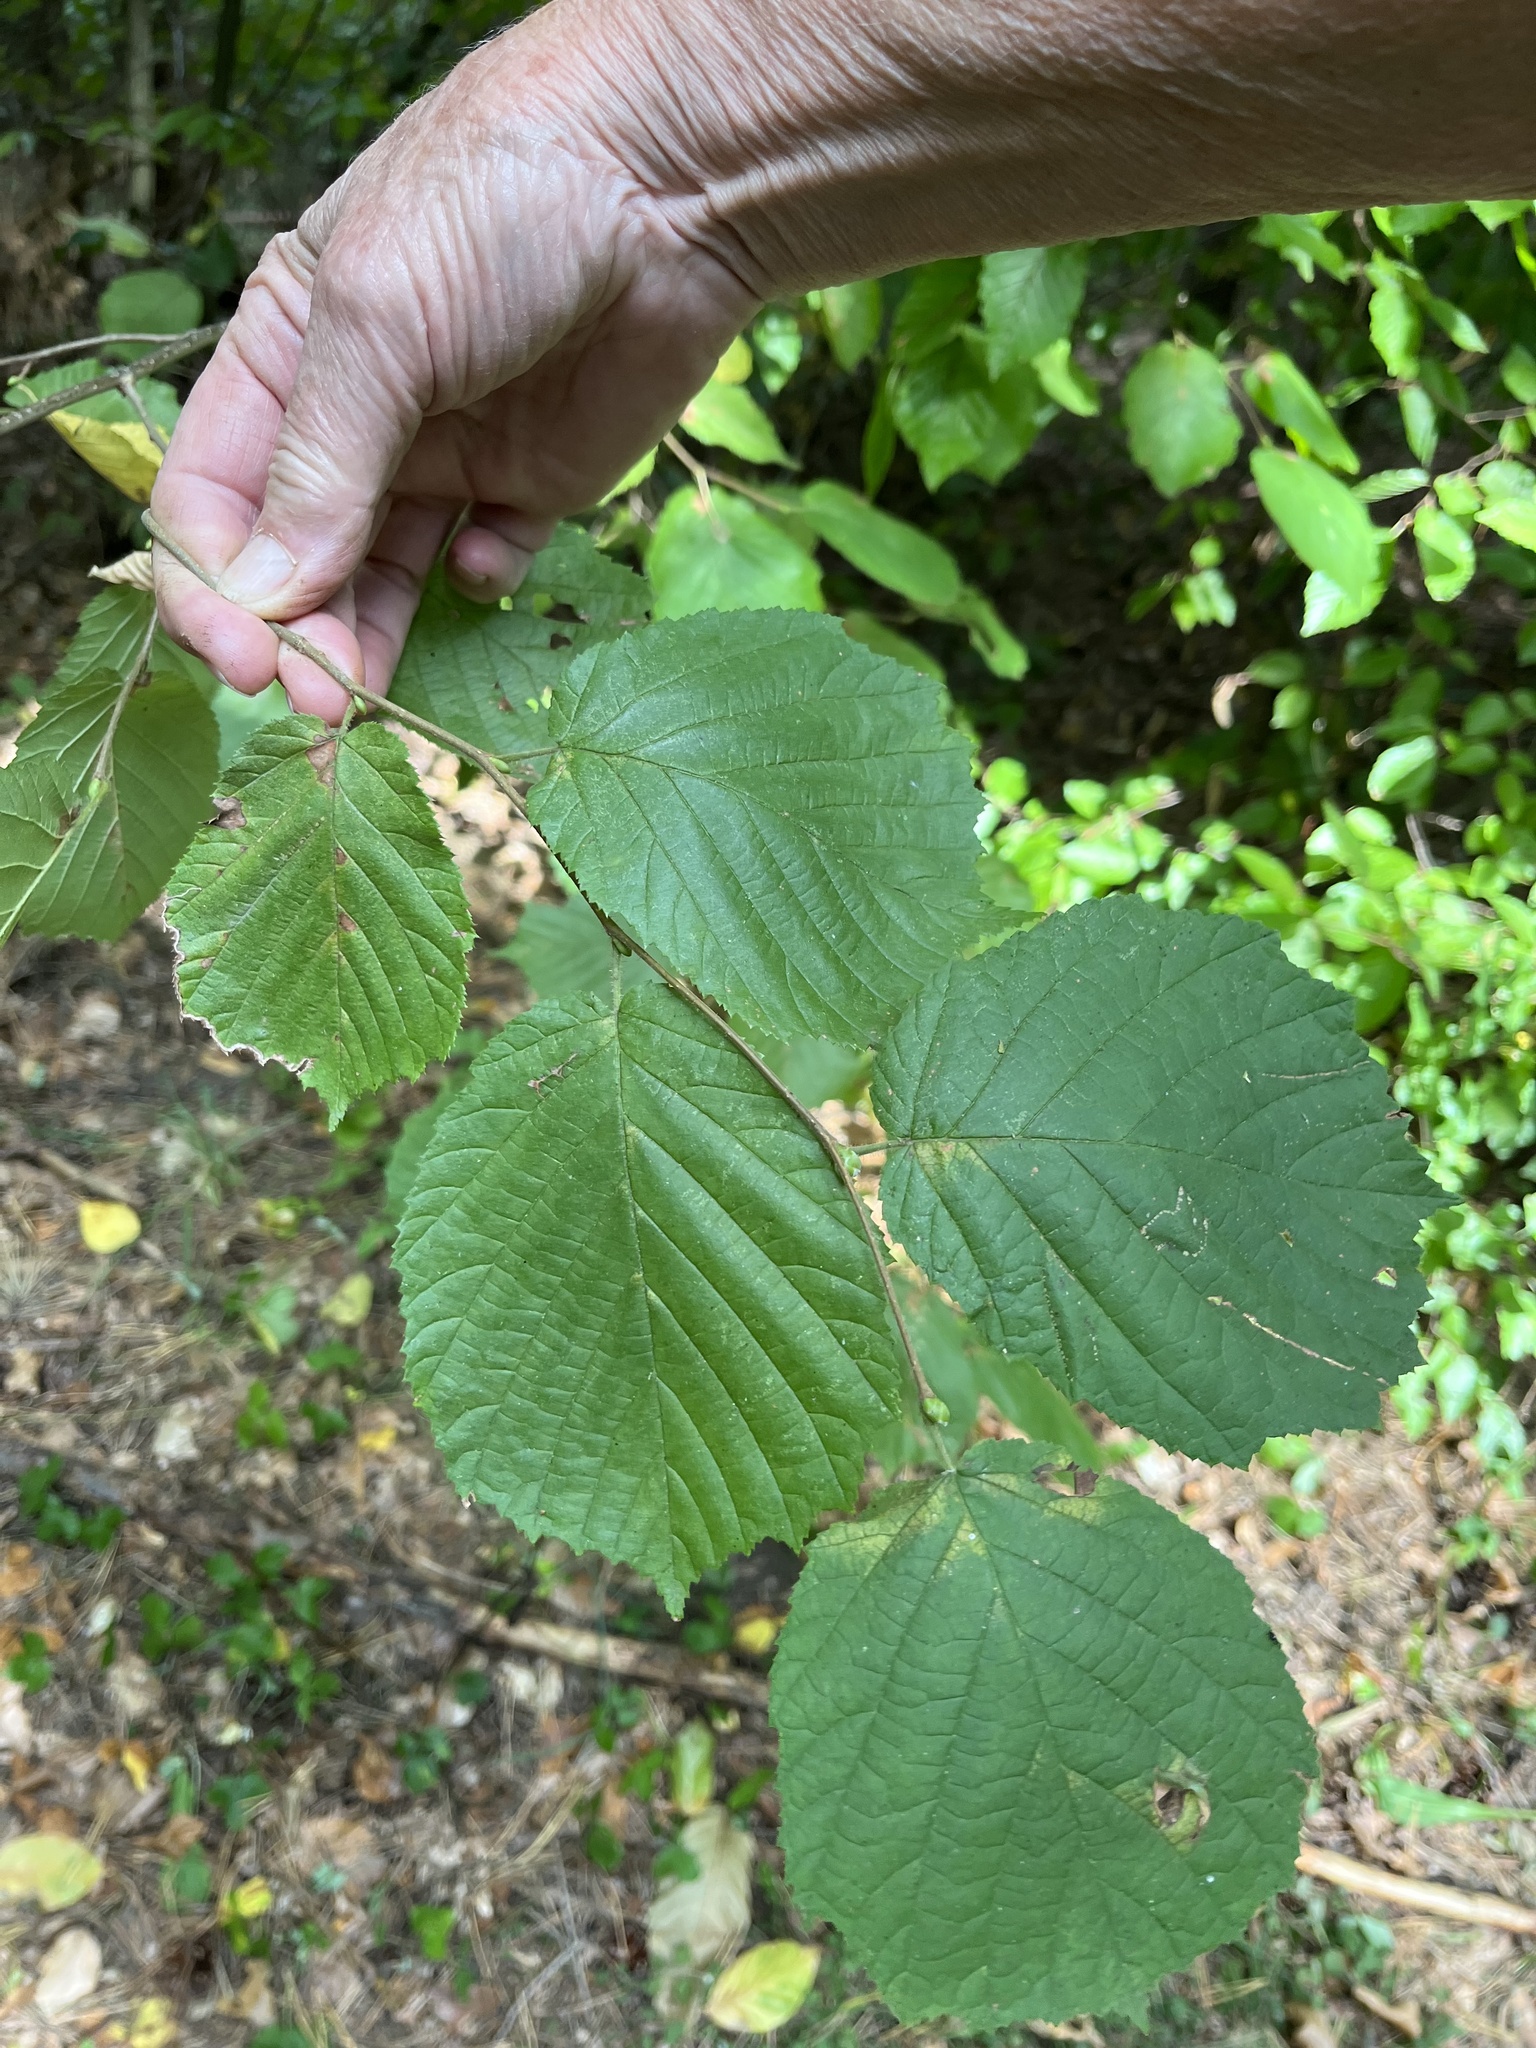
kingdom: Plantae
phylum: Tracheophyta
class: Magnoliopsida
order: Fagales
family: Betulaceae
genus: Corylus
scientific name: Corylus avellana
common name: European hazel
